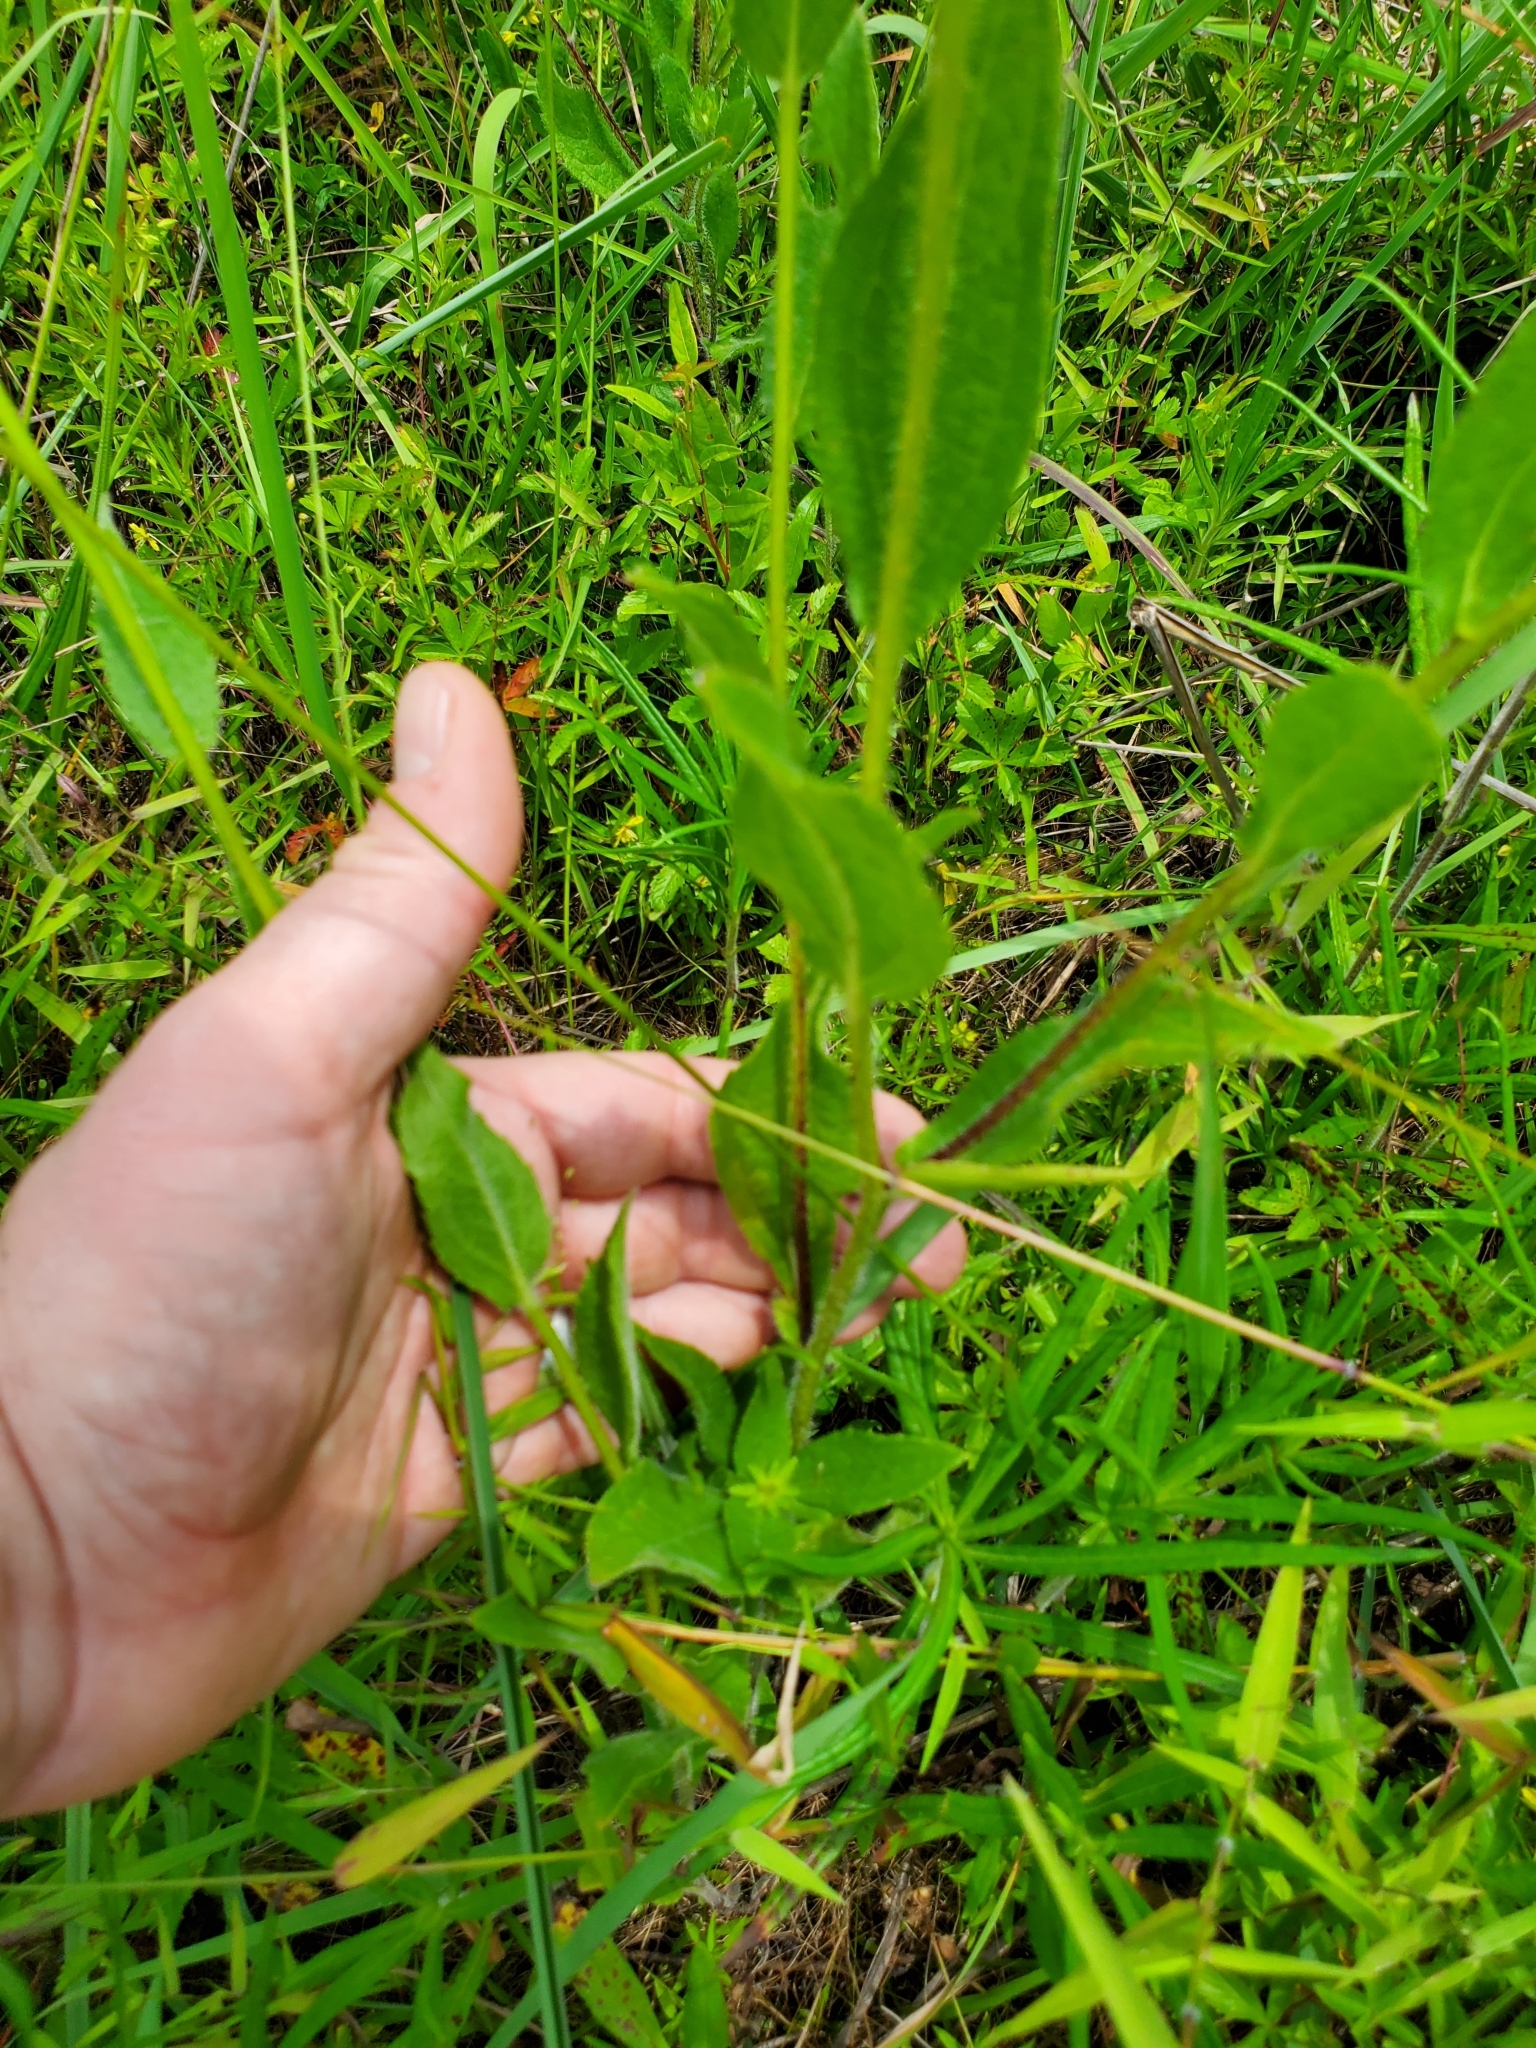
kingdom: Plantae
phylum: Tracheophyta
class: Magnoliopsida
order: Asterales
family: Asteraceae
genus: Rudbeckia
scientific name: Rudbeckia hirta
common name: Black-eyed-susan
